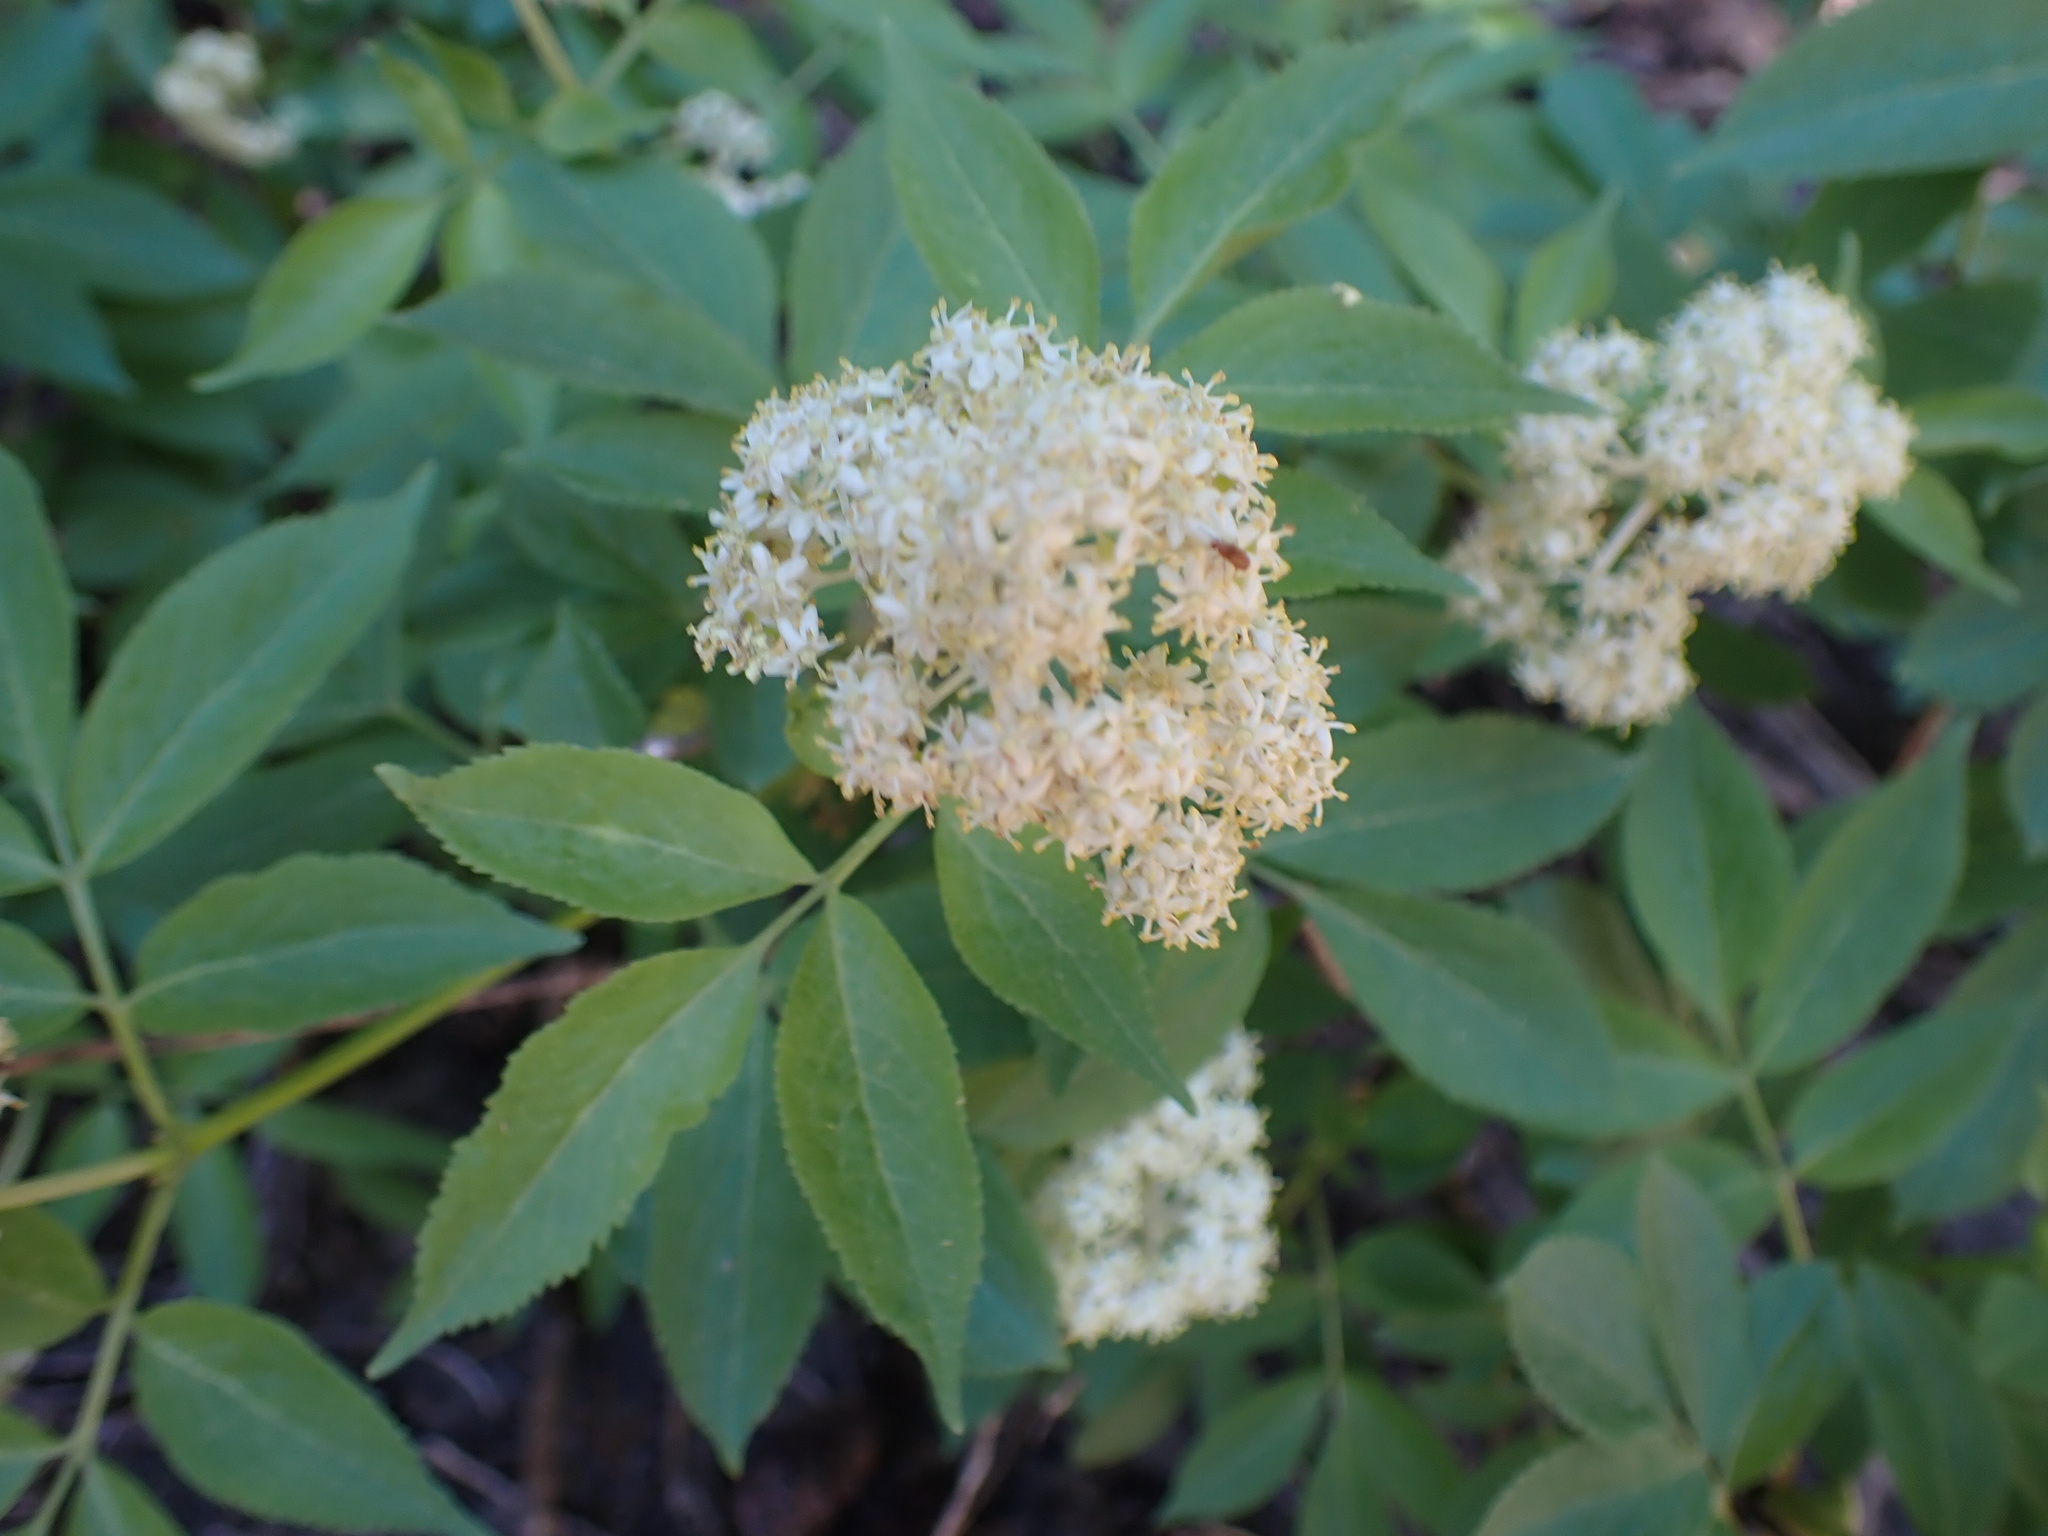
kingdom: Plantae
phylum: Tracheophyta
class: Magnoliopsida
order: Dipsacales
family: Viburnaceae
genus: Sambucus
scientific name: Sambucus racemosa
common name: Red-berried elder
